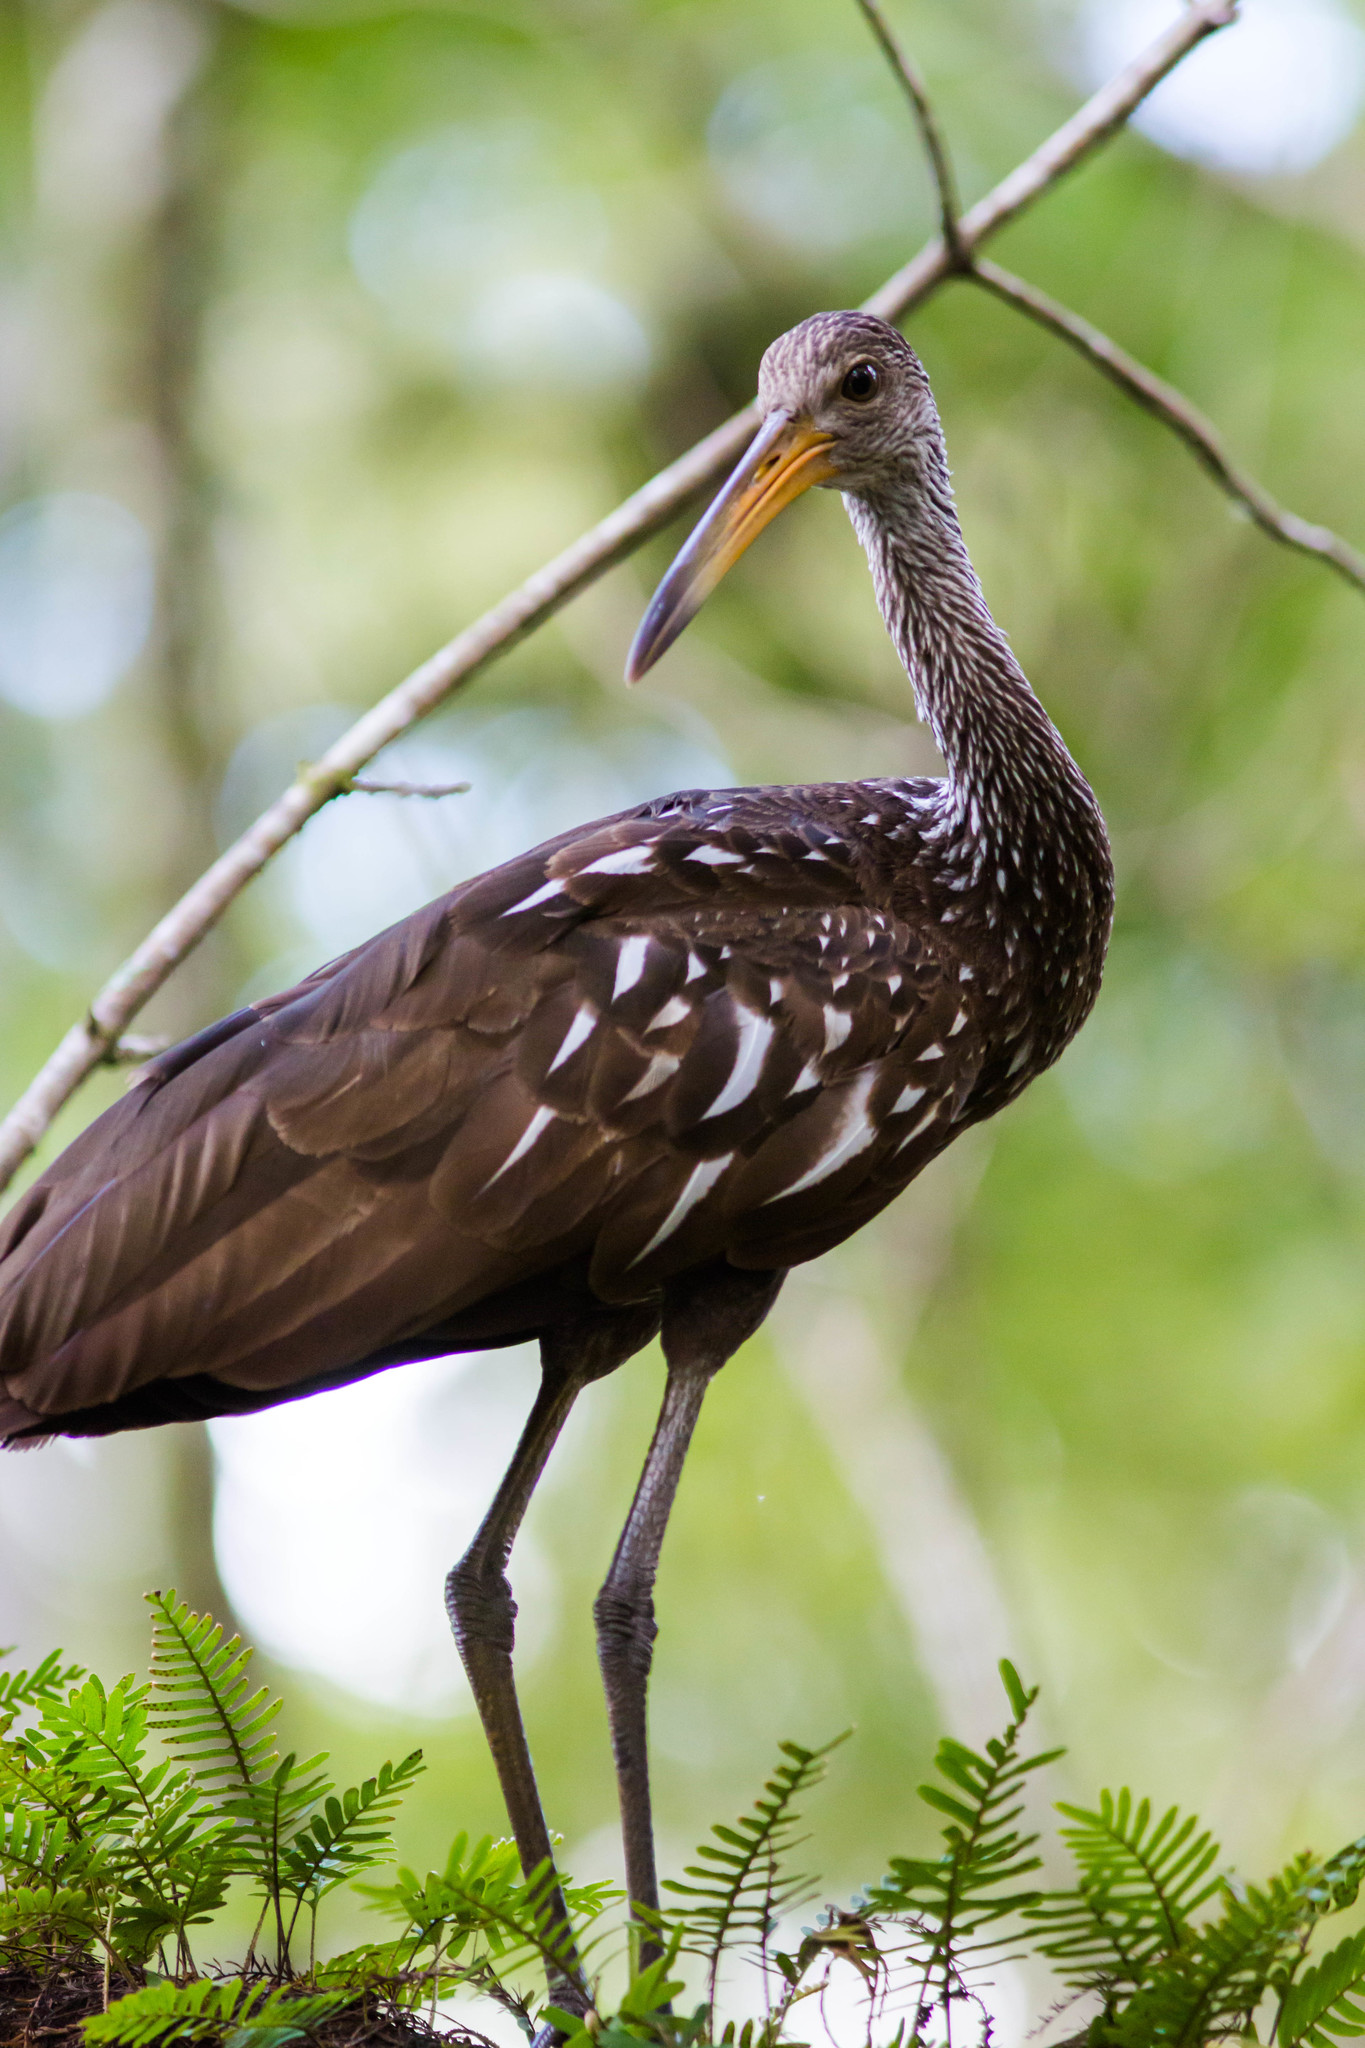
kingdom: Animalia
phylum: Chordata
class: Aves
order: Gruiformes
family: Aramidae
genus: Aramus
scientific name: Aramus guarauna
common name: Limpkin
